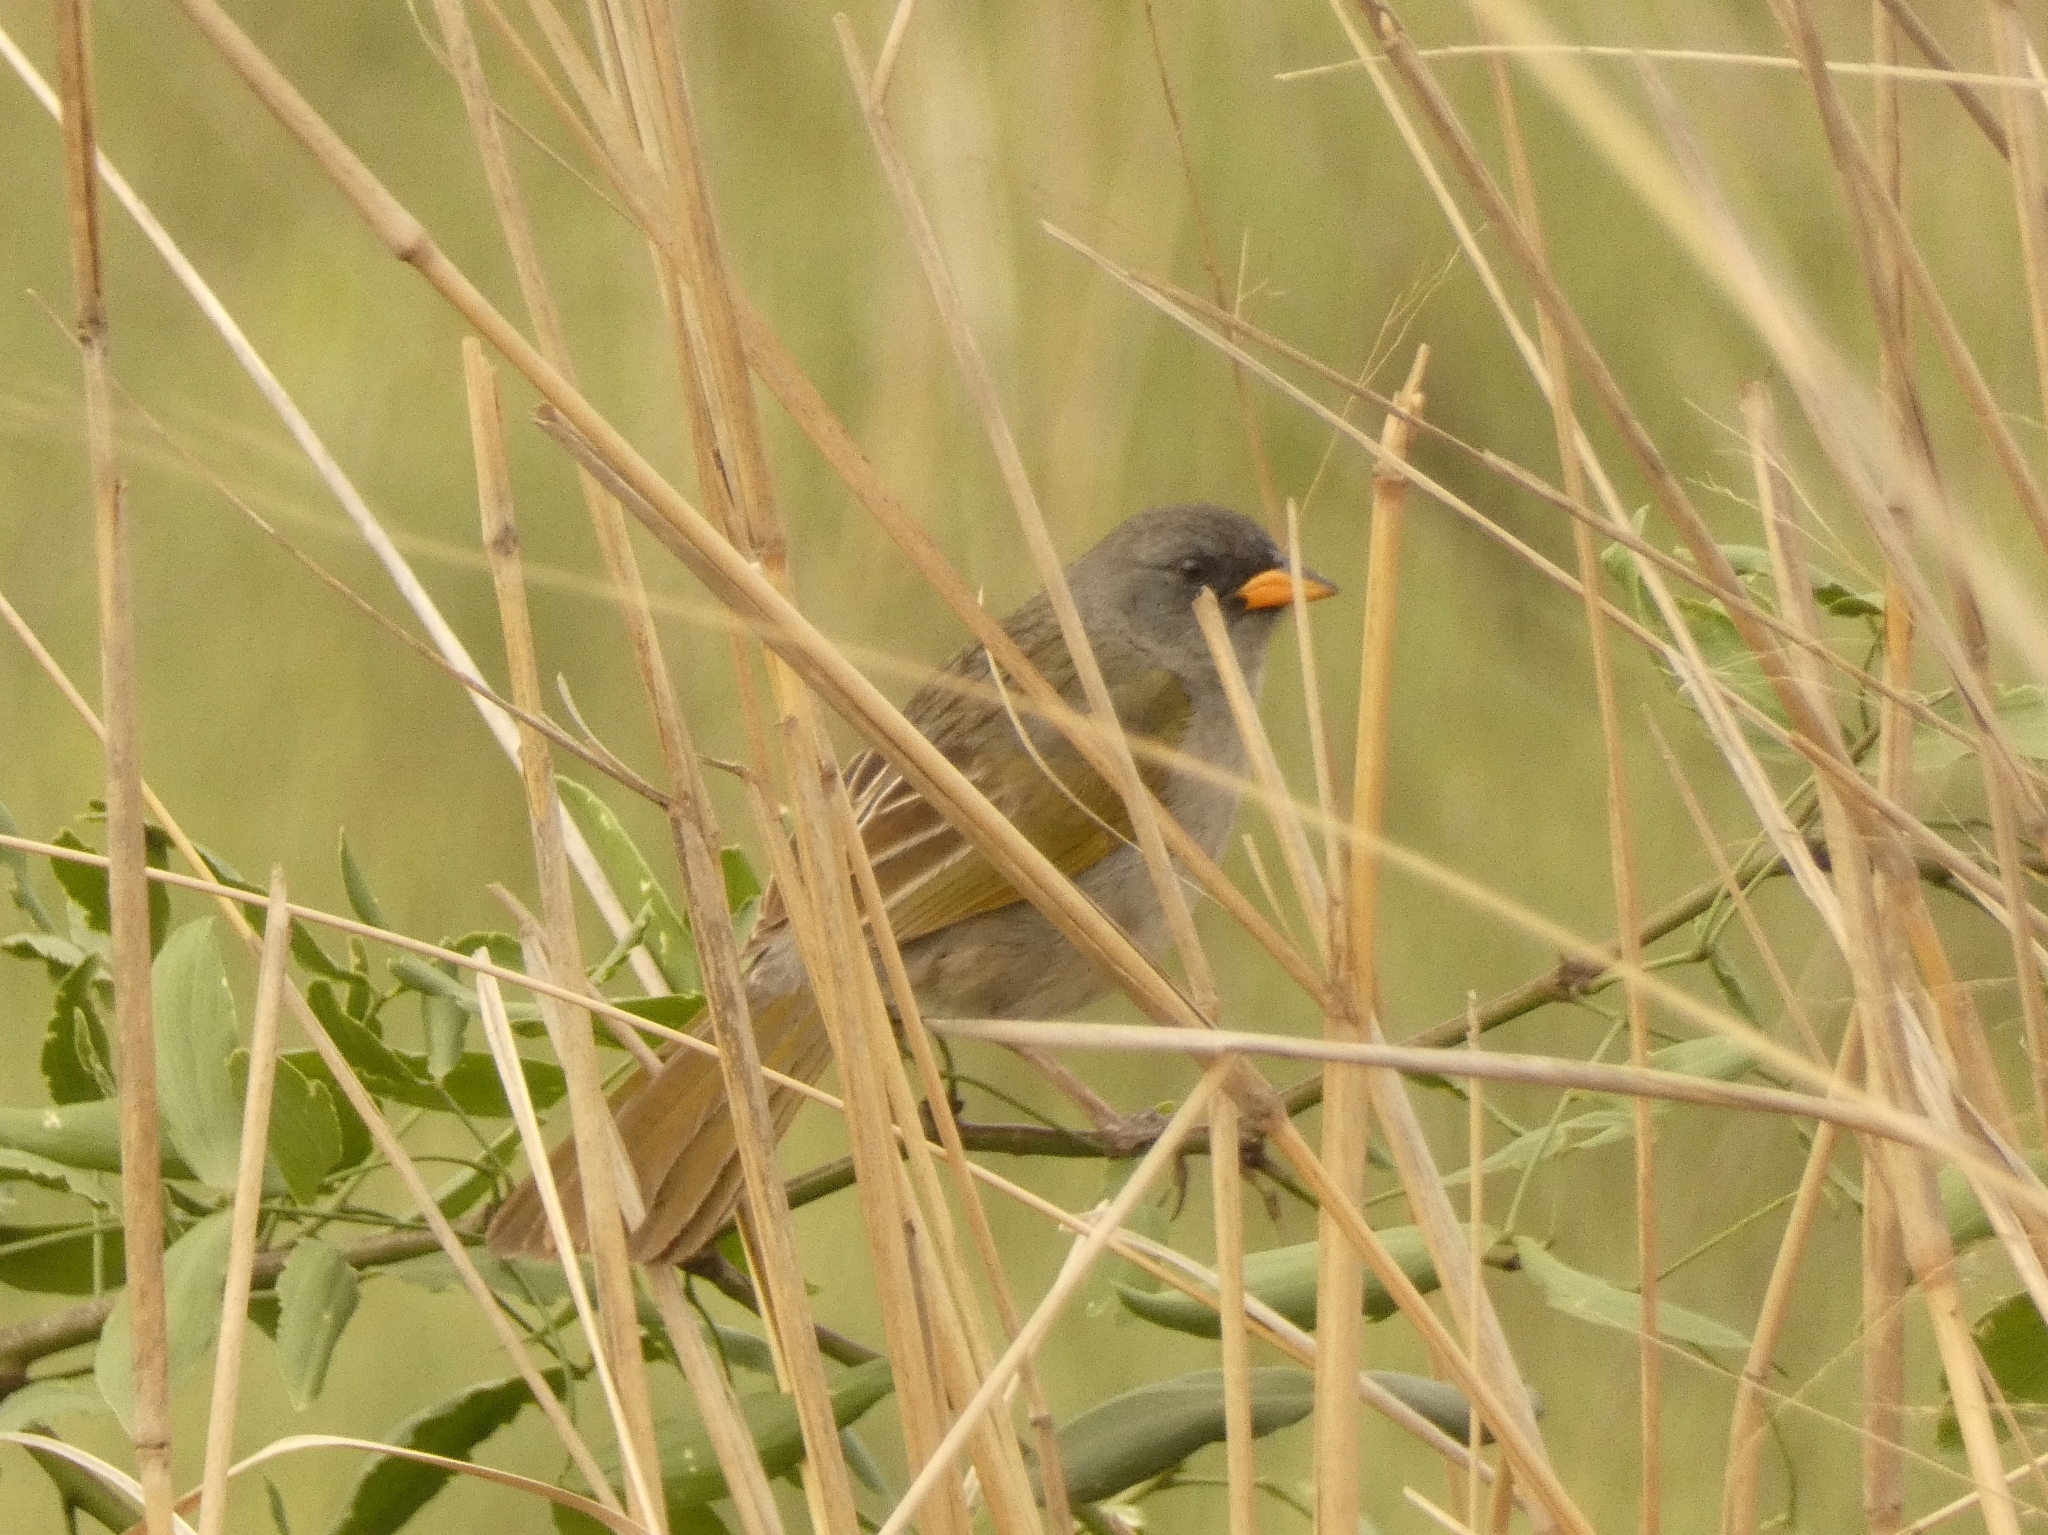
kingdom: Animalia
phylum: Chordata
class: Aves
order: Passeriformes
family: Thraupidae
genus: Embernagra
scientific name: Embernagra platensis
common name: Pampa finch
